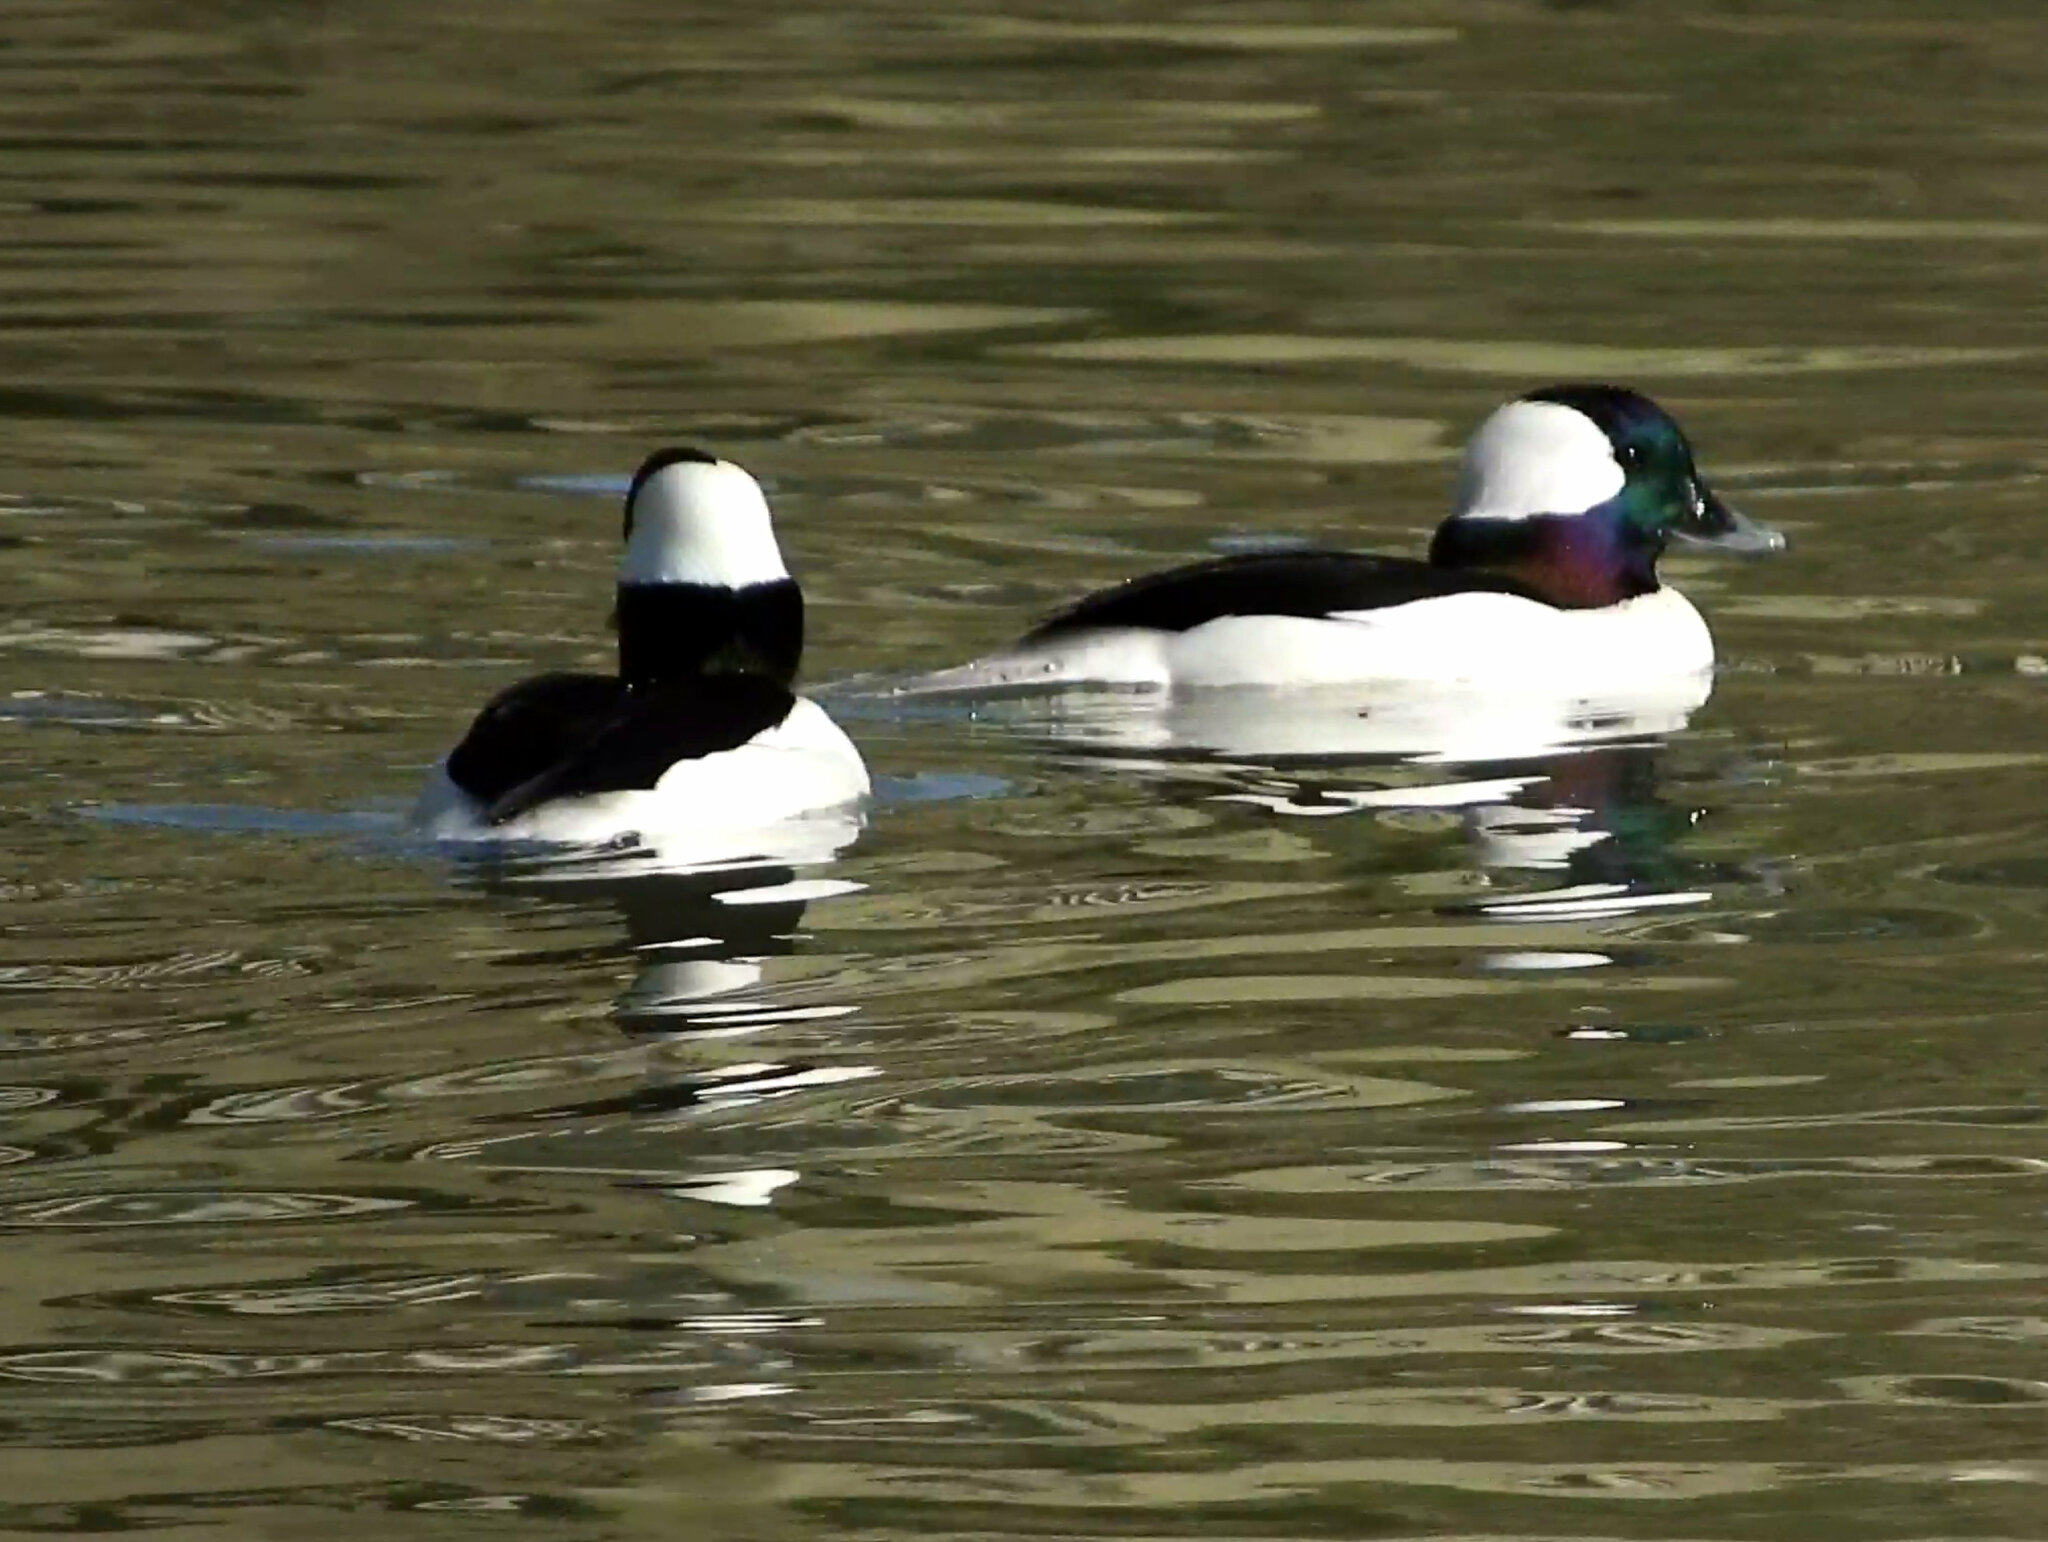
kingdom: Animalia
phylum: Chordata
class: Aves
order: Anseriformes
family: Anatidae
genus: Bucephala
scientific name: Bucephala albeola
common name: Bufflehead
